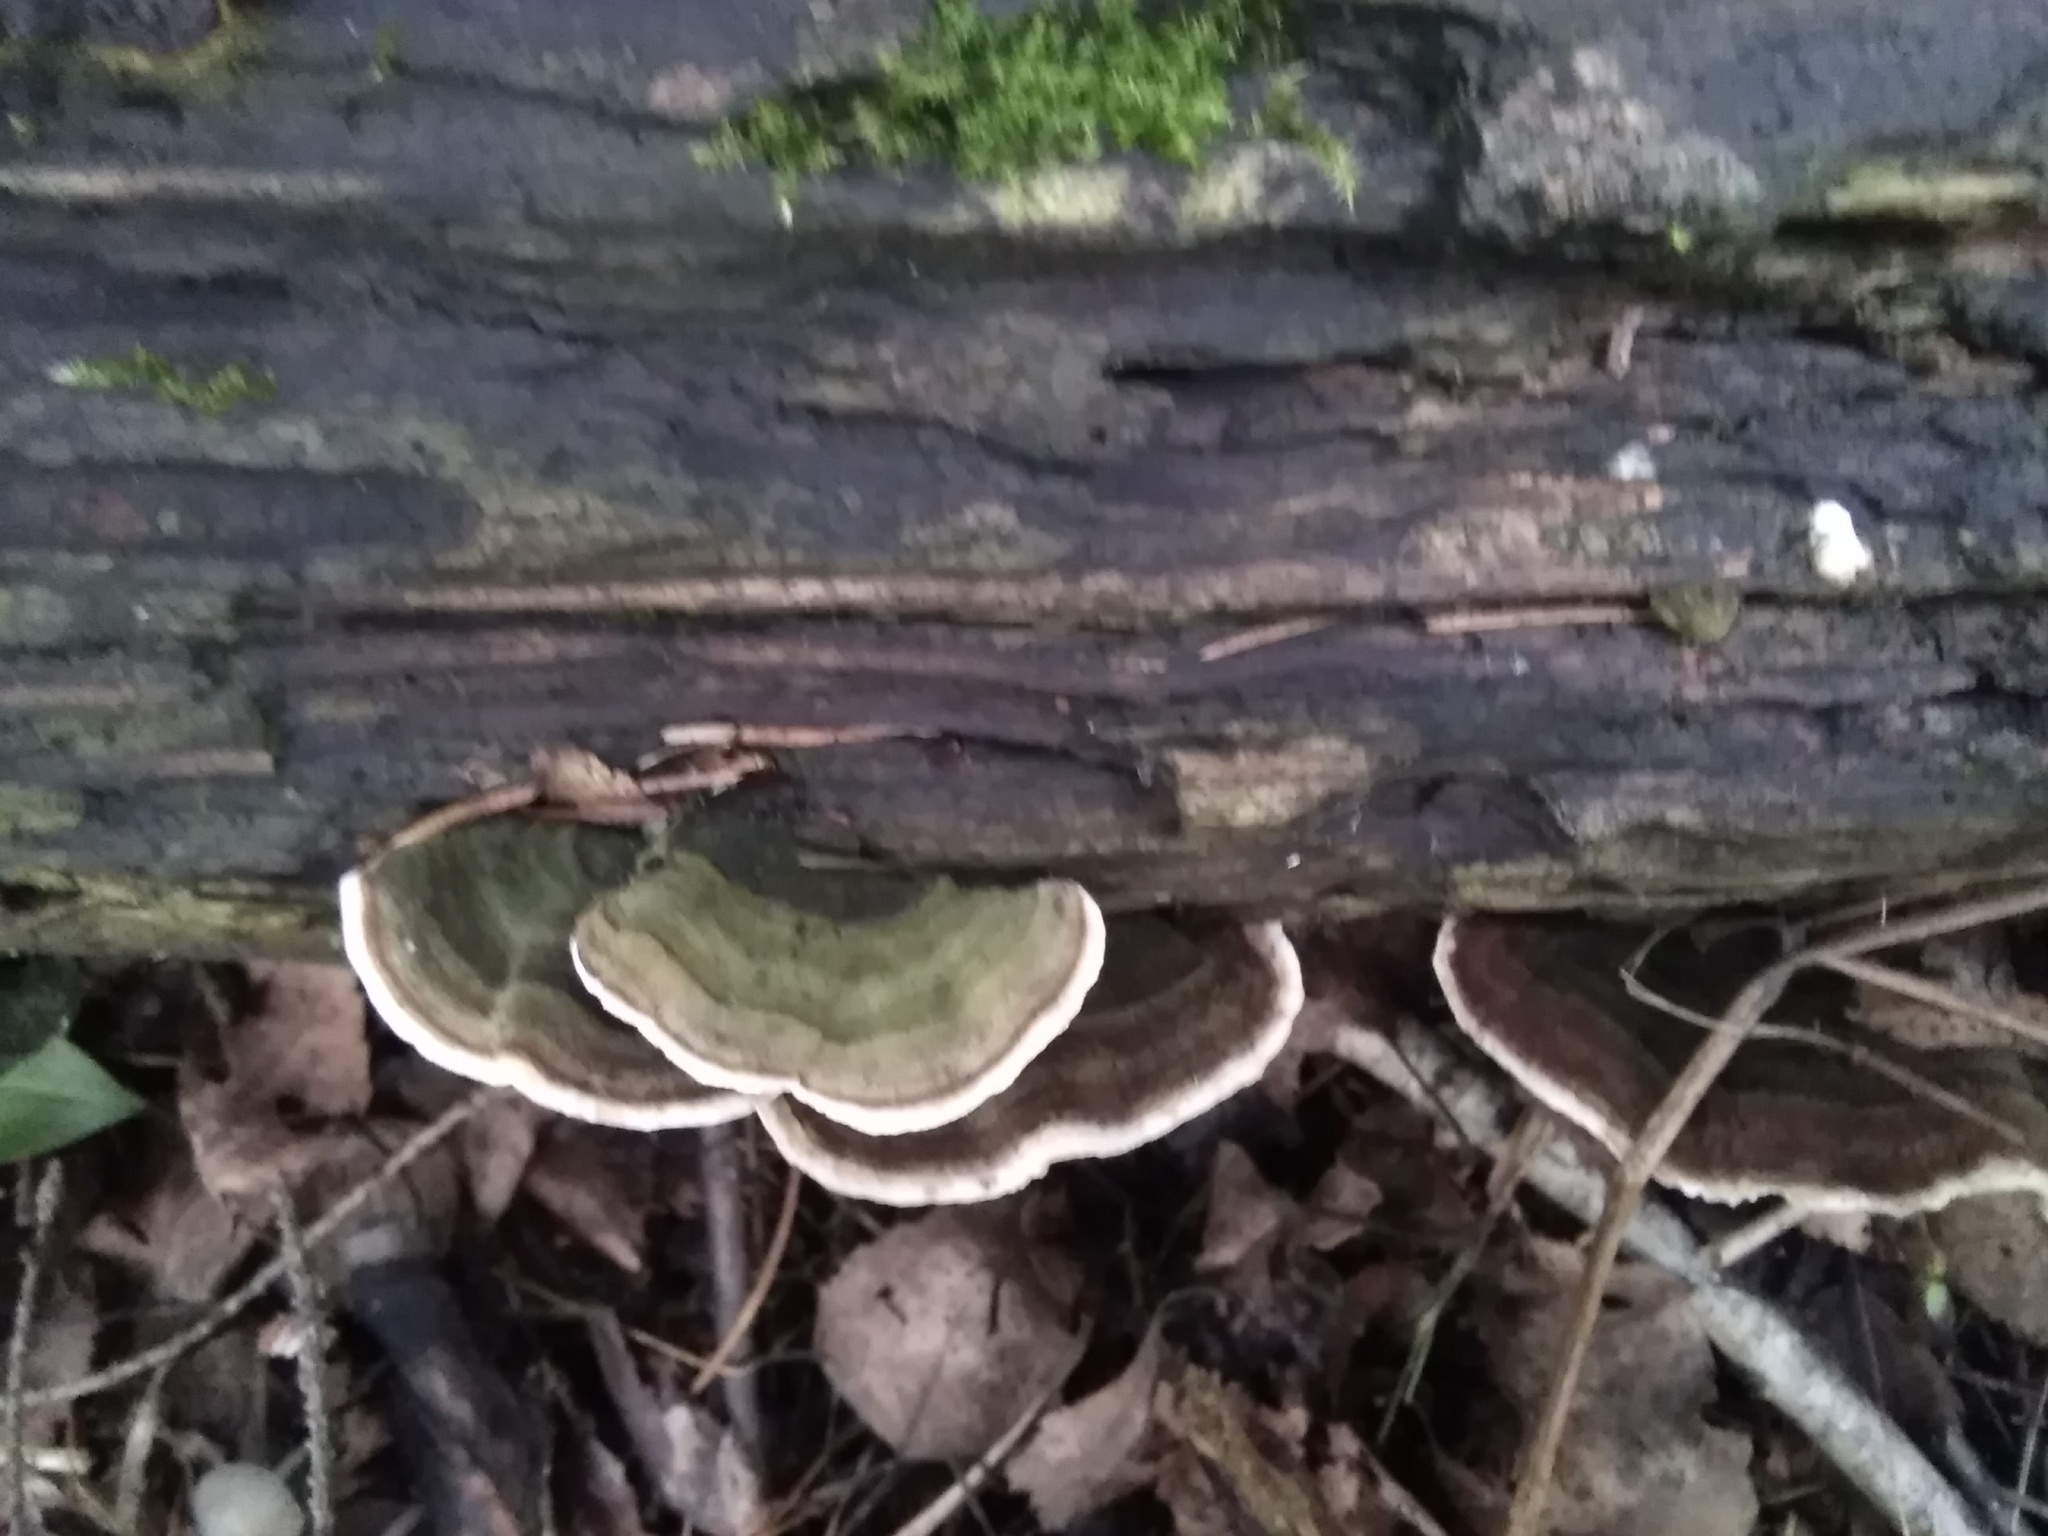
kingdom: Fungi
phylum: Basidiomycota
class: Agaricomycetes
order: Russulales
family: Stereaceae
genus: Stereum
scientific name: Stereum subtomentosum
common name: Yellowing curtain crust
